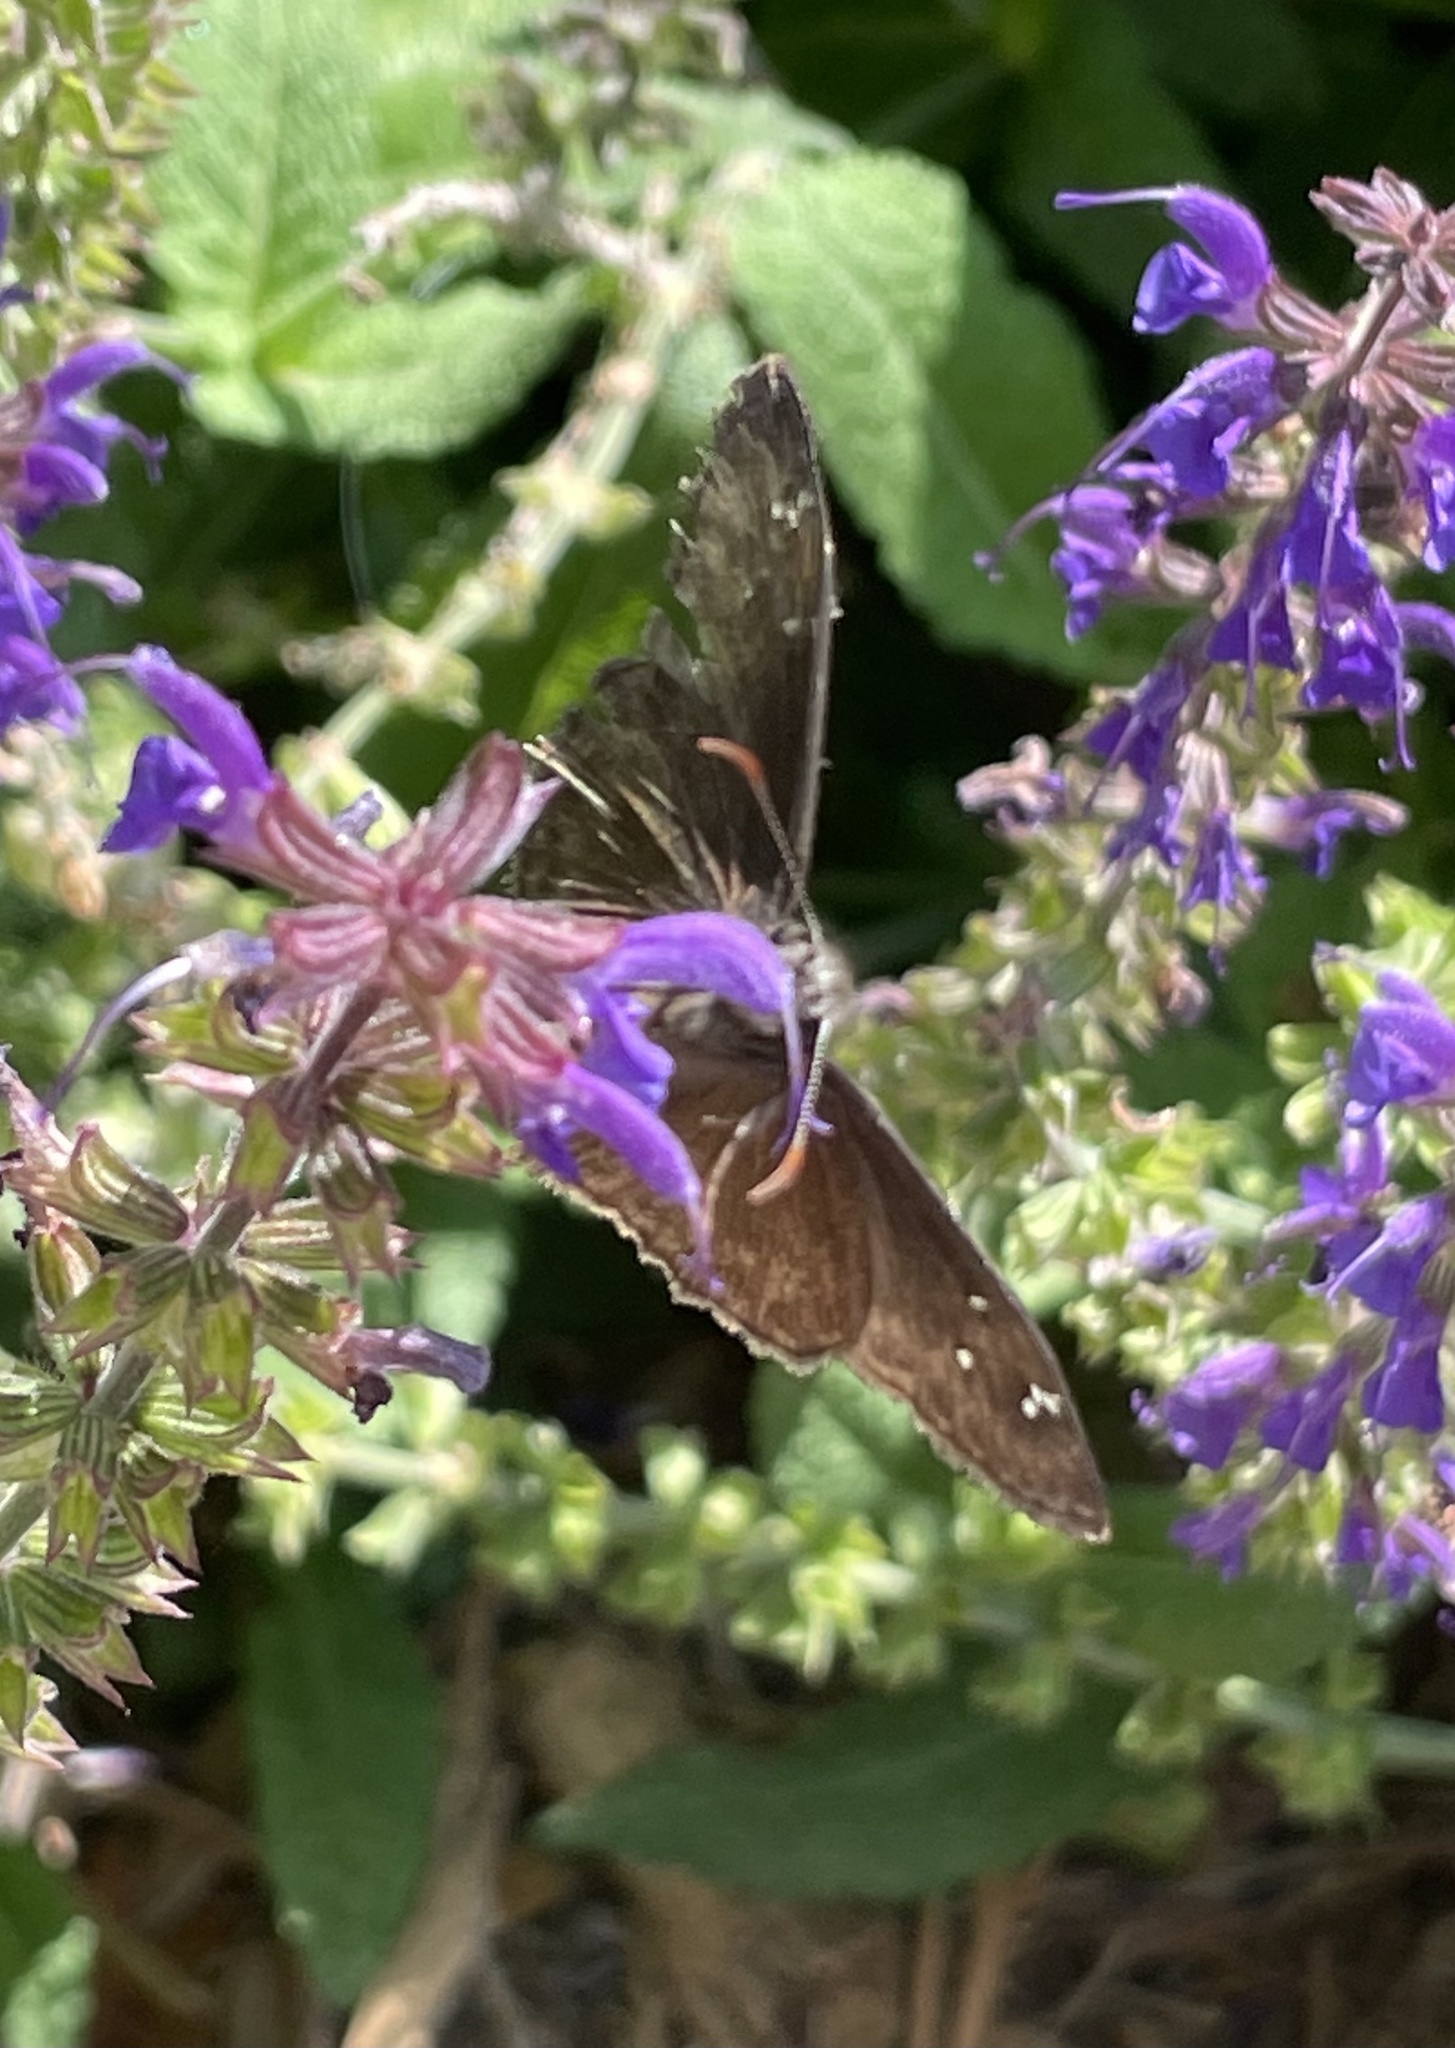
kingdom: Animalia
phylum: Arthropoda
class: Insecta
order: Lepidoptera
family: Hesperiidae
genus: Erynnis
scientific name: Erynnis horatius
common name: Horace's duskywing
